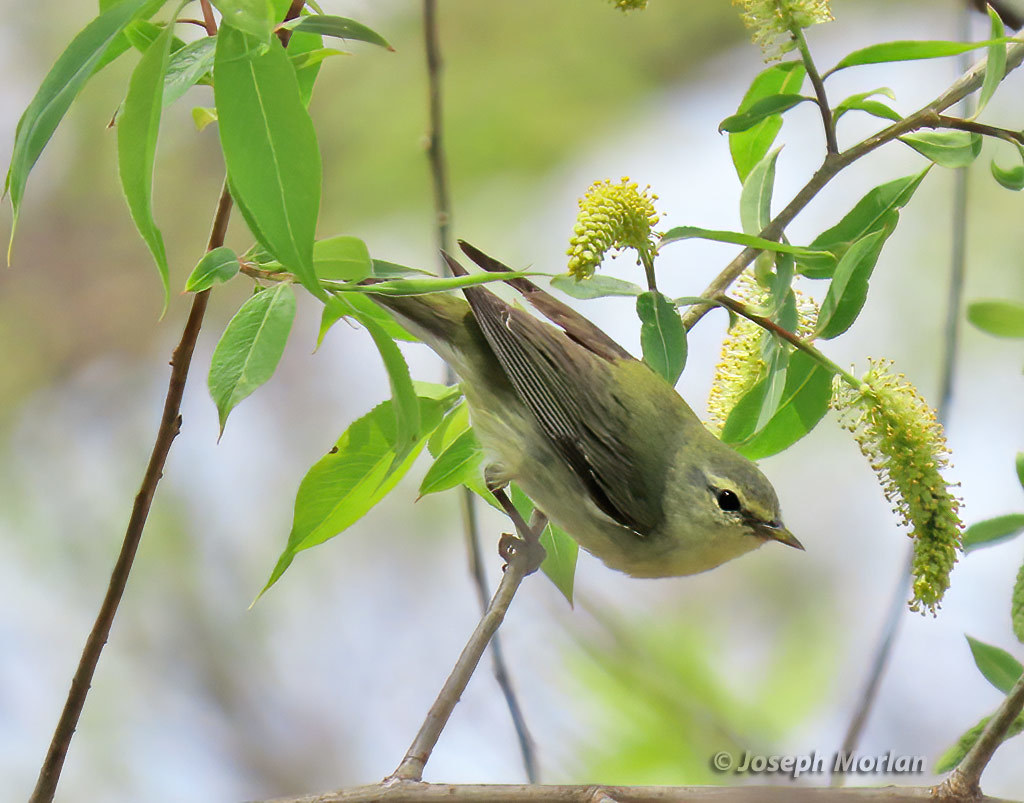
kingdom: Animalia
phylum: Chordata
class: Aves
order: Passeriformes
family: Parulidae
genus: Leiothlypis
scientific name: Leiothlypis peregrina
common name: Tennessee warbler
